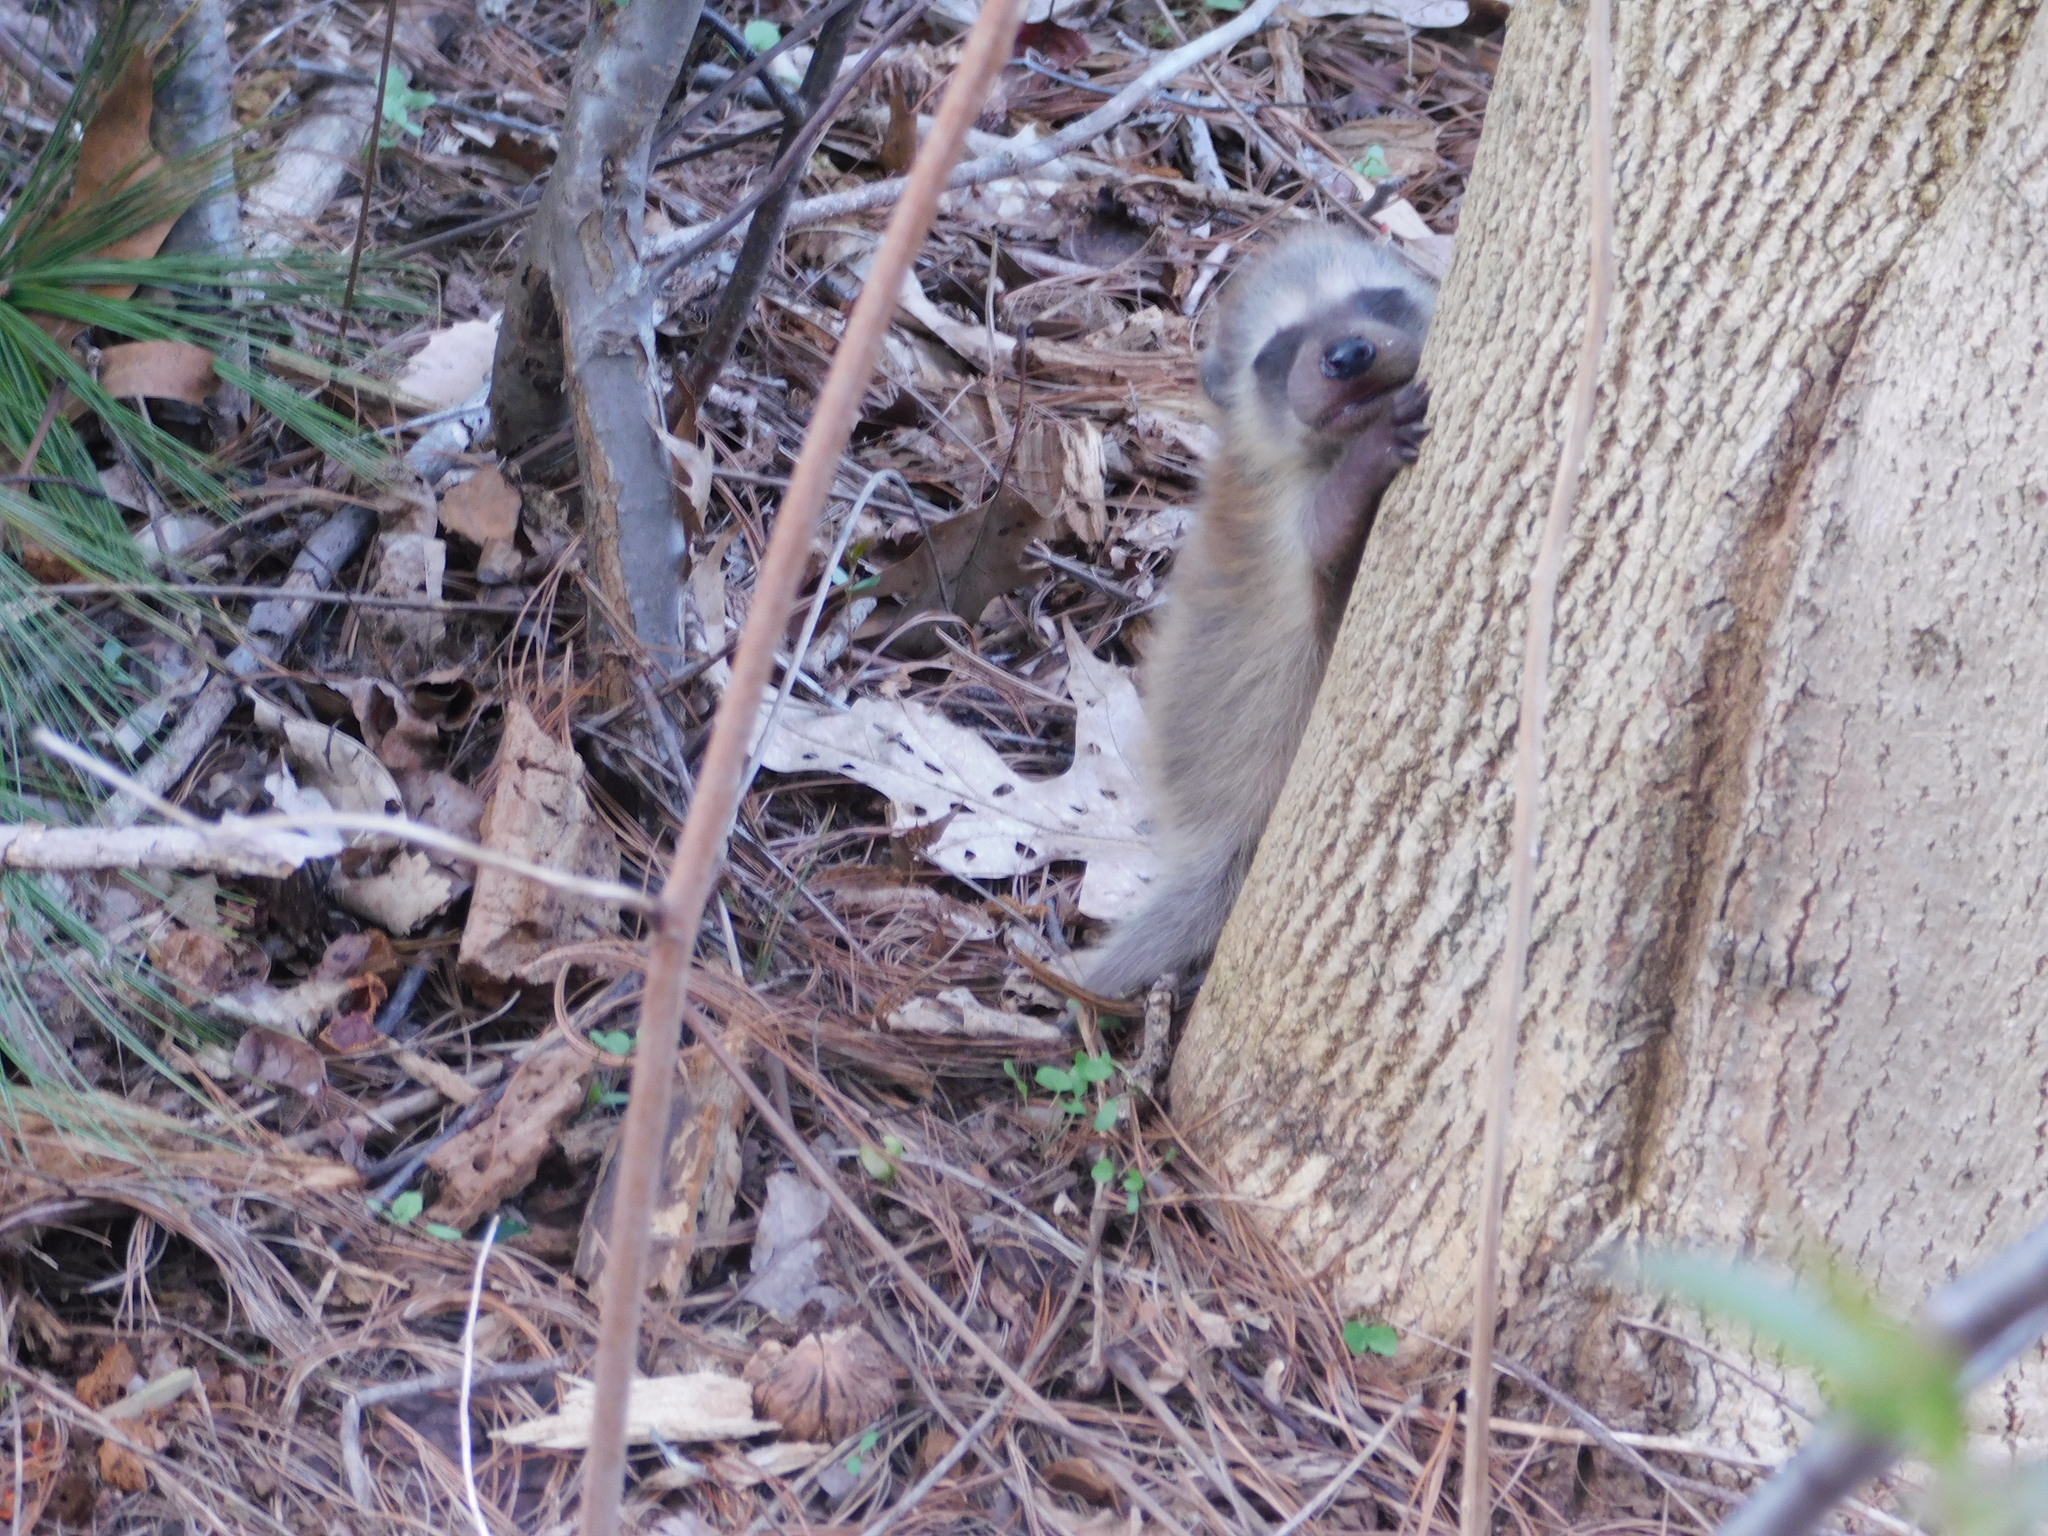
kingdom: Animalia
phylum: Chordata
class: Mammalia
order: Carnivora
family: Procyonidae
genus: Procyon
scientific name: Procyon lotor
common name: Raccoon
